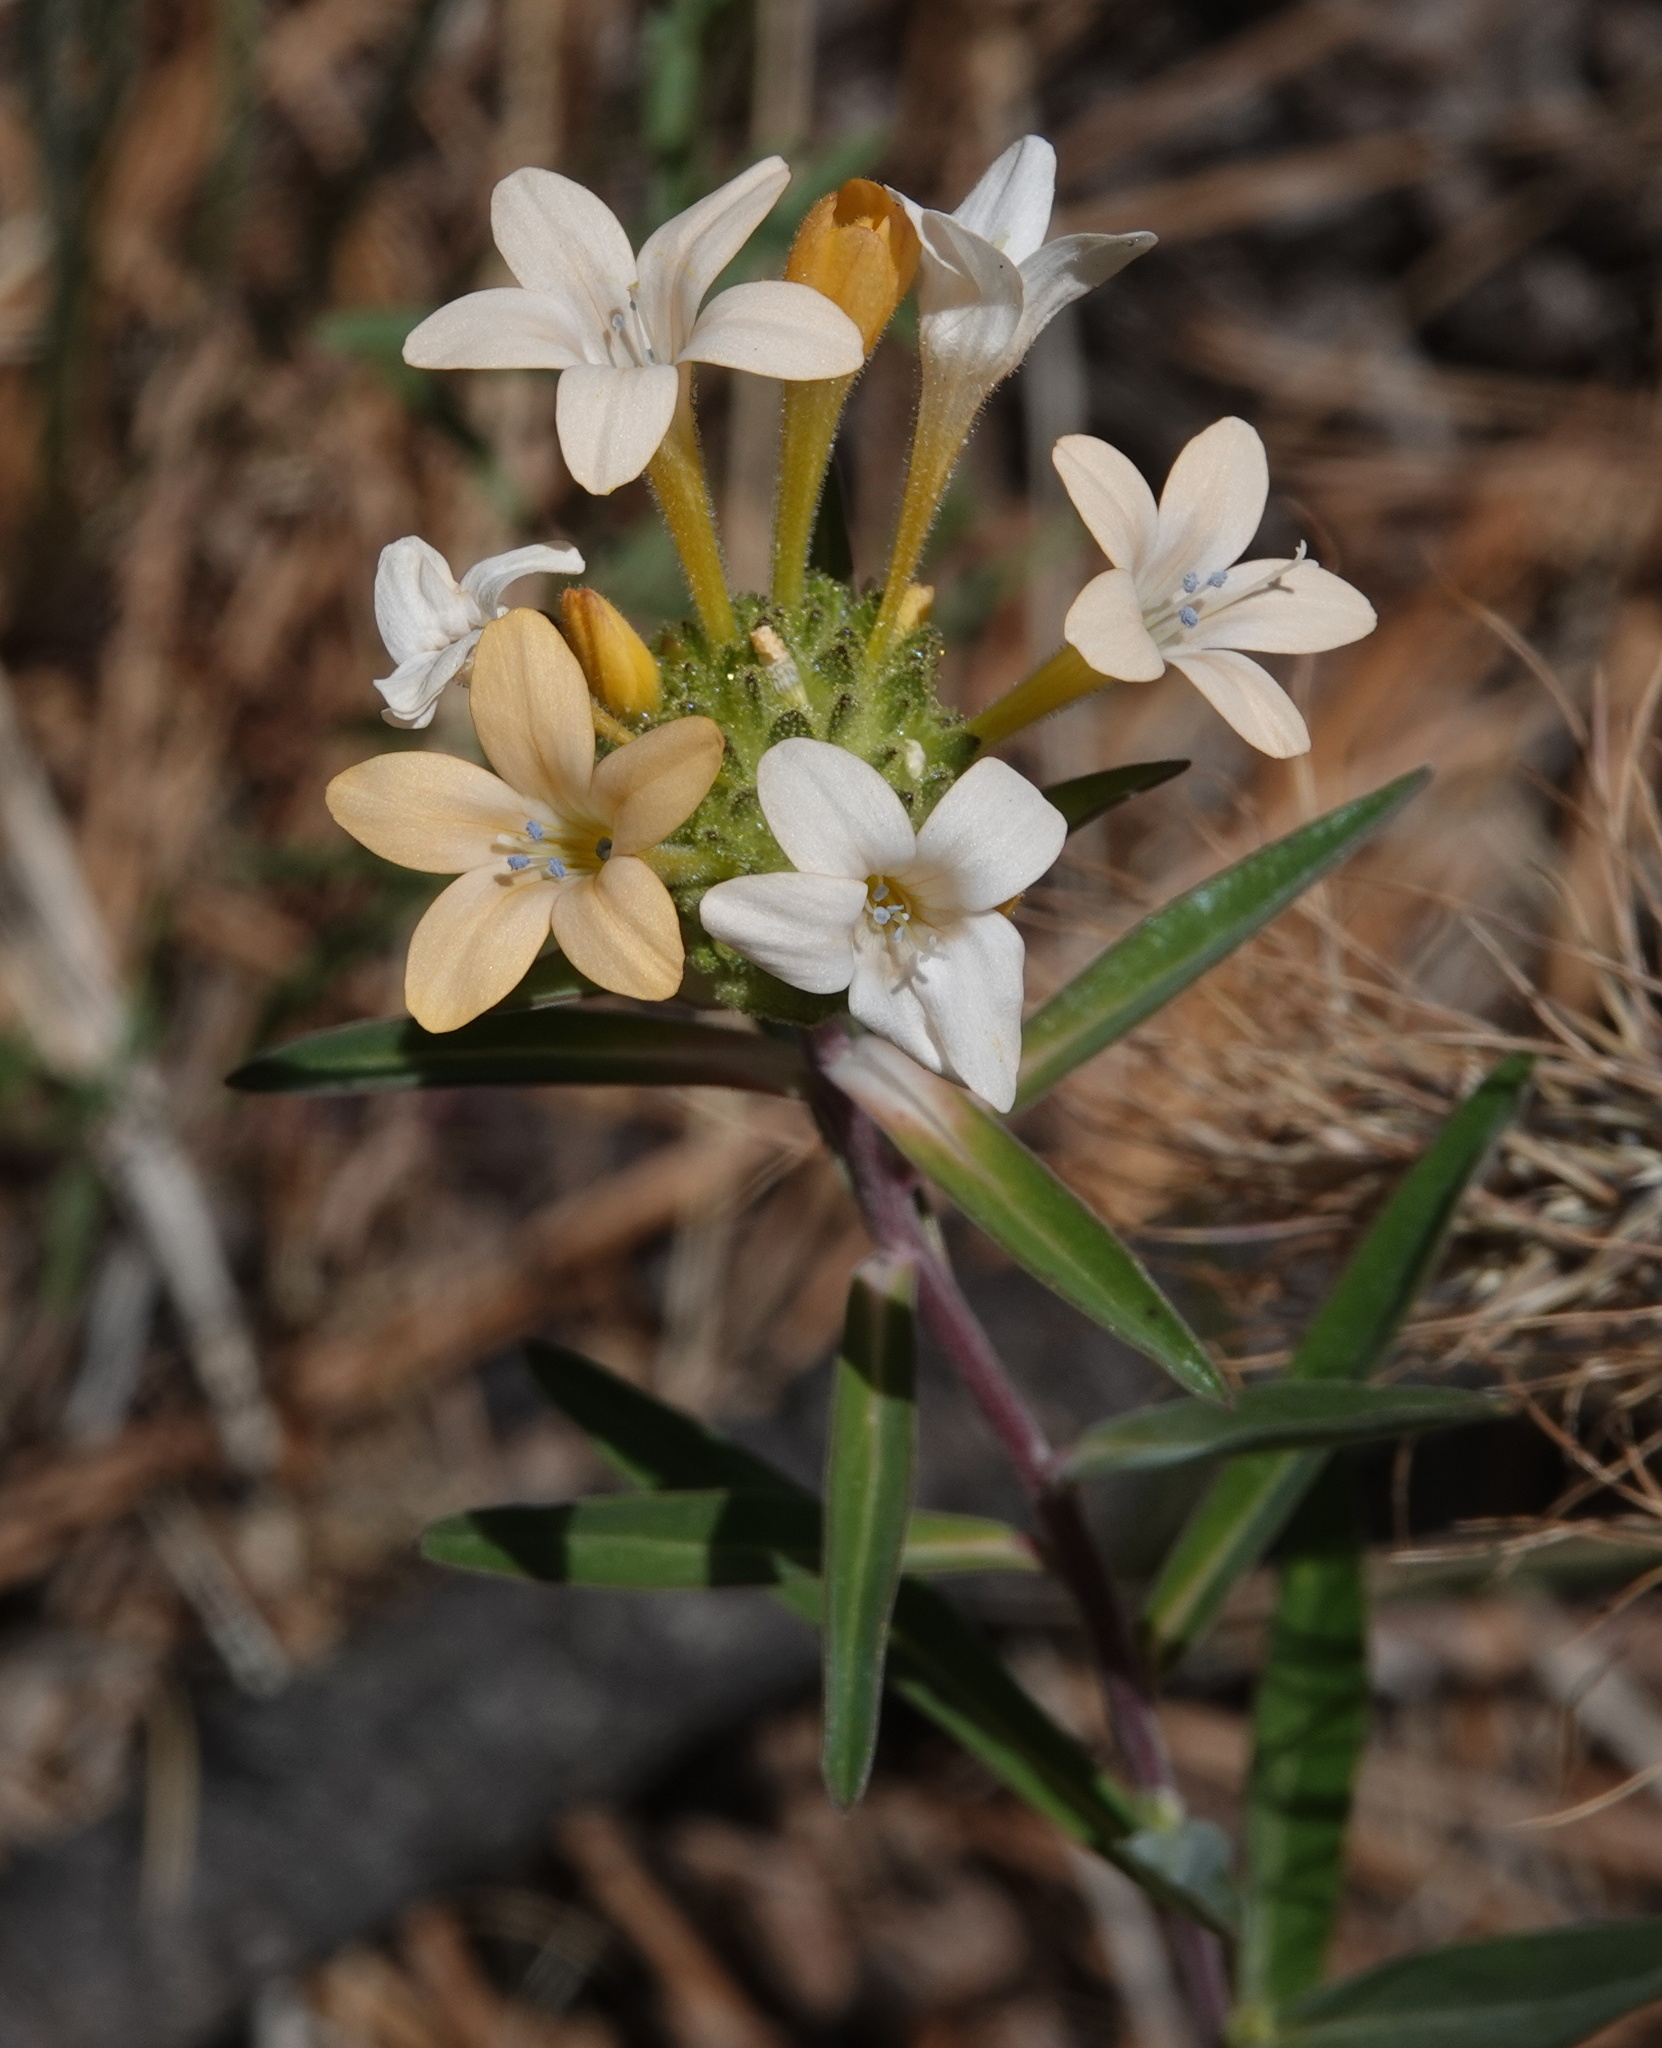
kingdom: Plantae
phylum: Tracheophyta
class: Magnoliopsida
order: Ericales
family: Polemoniaceae
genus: Collomia
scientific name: Collomia grandiflora
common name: California strawflower
